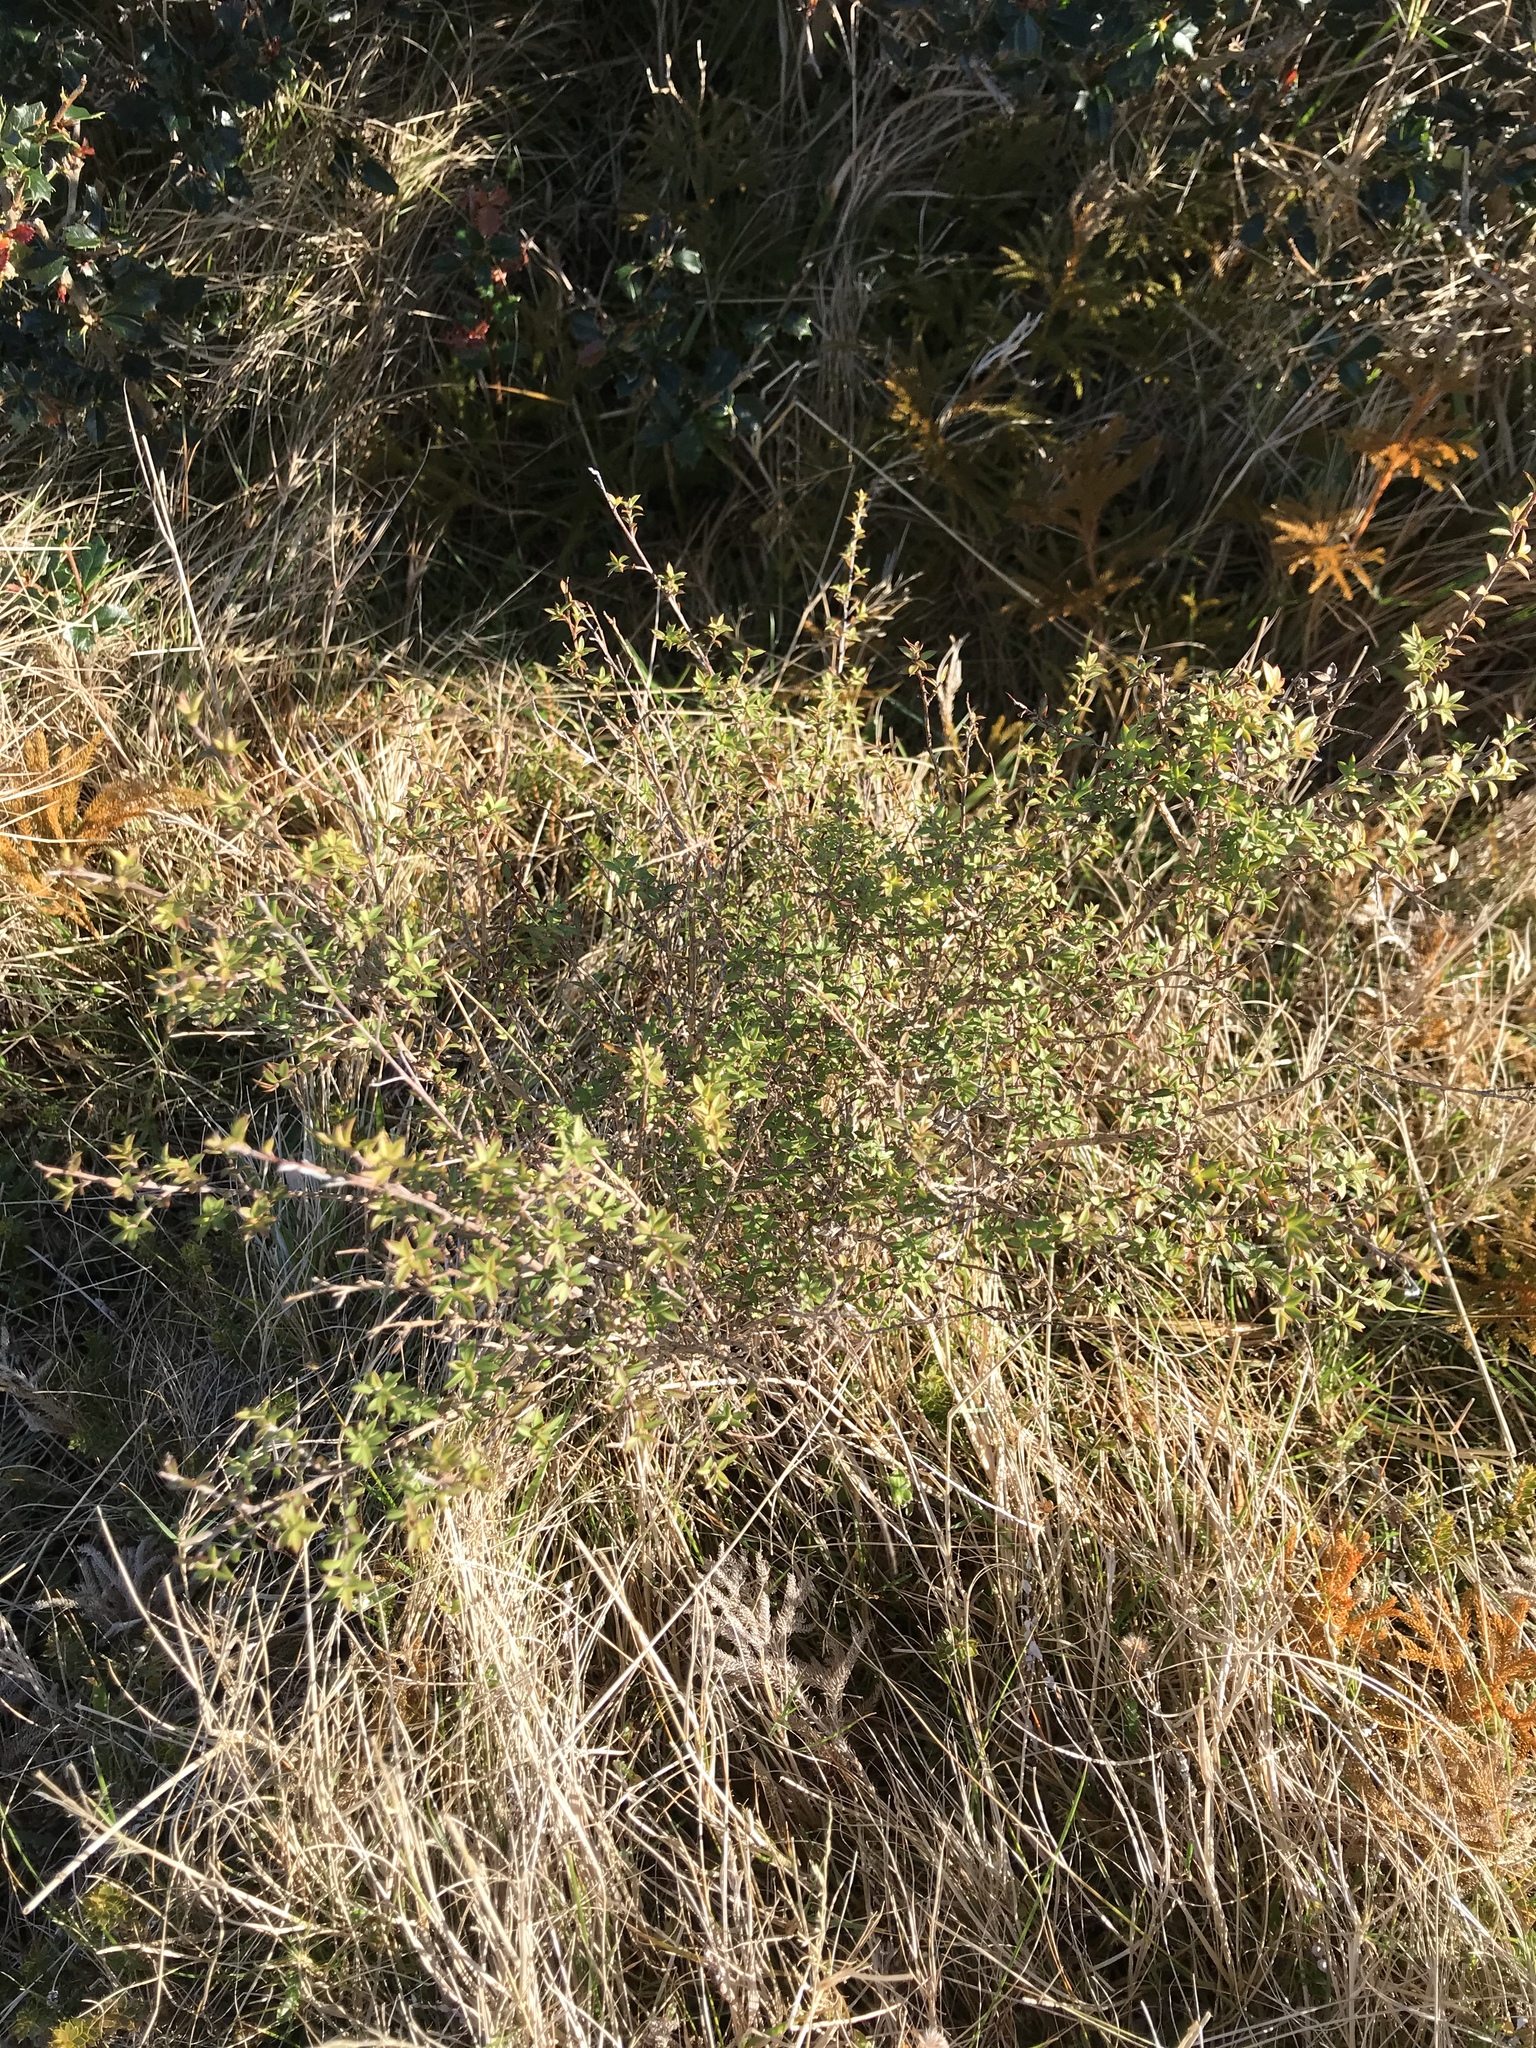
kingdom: Plantae
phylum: Tracheophyta
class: Magnoliopsida
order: Myrtales
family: Myrtaceae
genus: Leptospermum
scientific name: Leptospermum scoparium
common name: Broom tea-tree
